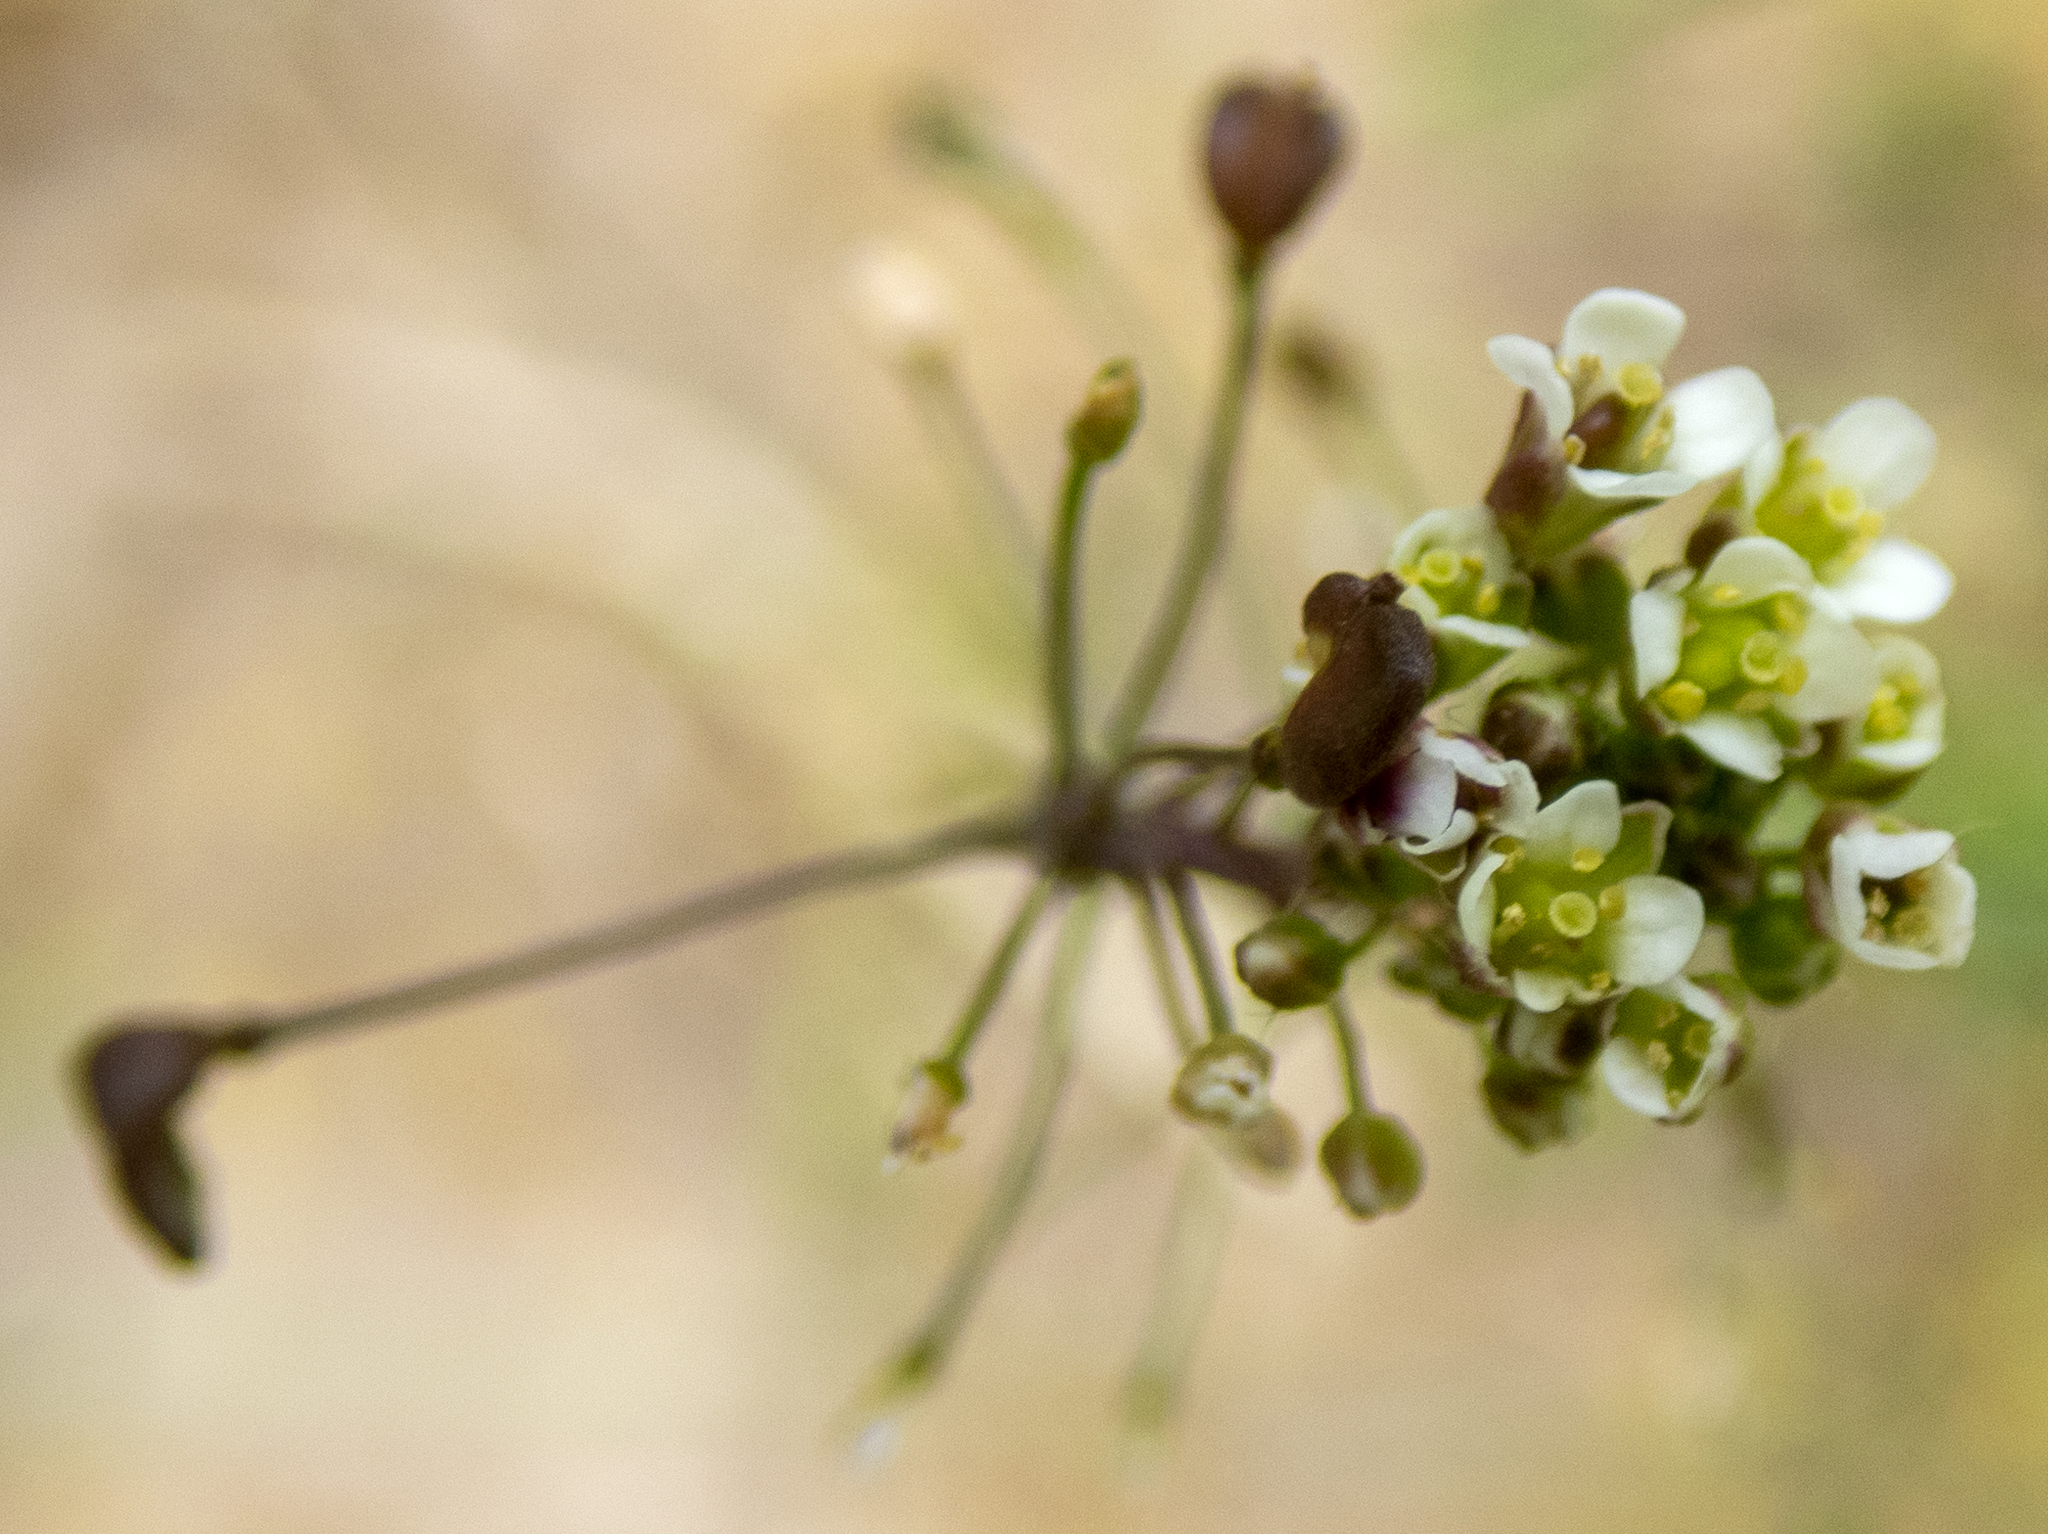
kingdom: Plantae
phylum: Tracheophyta
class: Magnoliopsida
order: Brassicales
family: Brassicaceae
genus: Capsella
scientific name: Capsella bursa-pastoris
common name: Shepherd's purse
